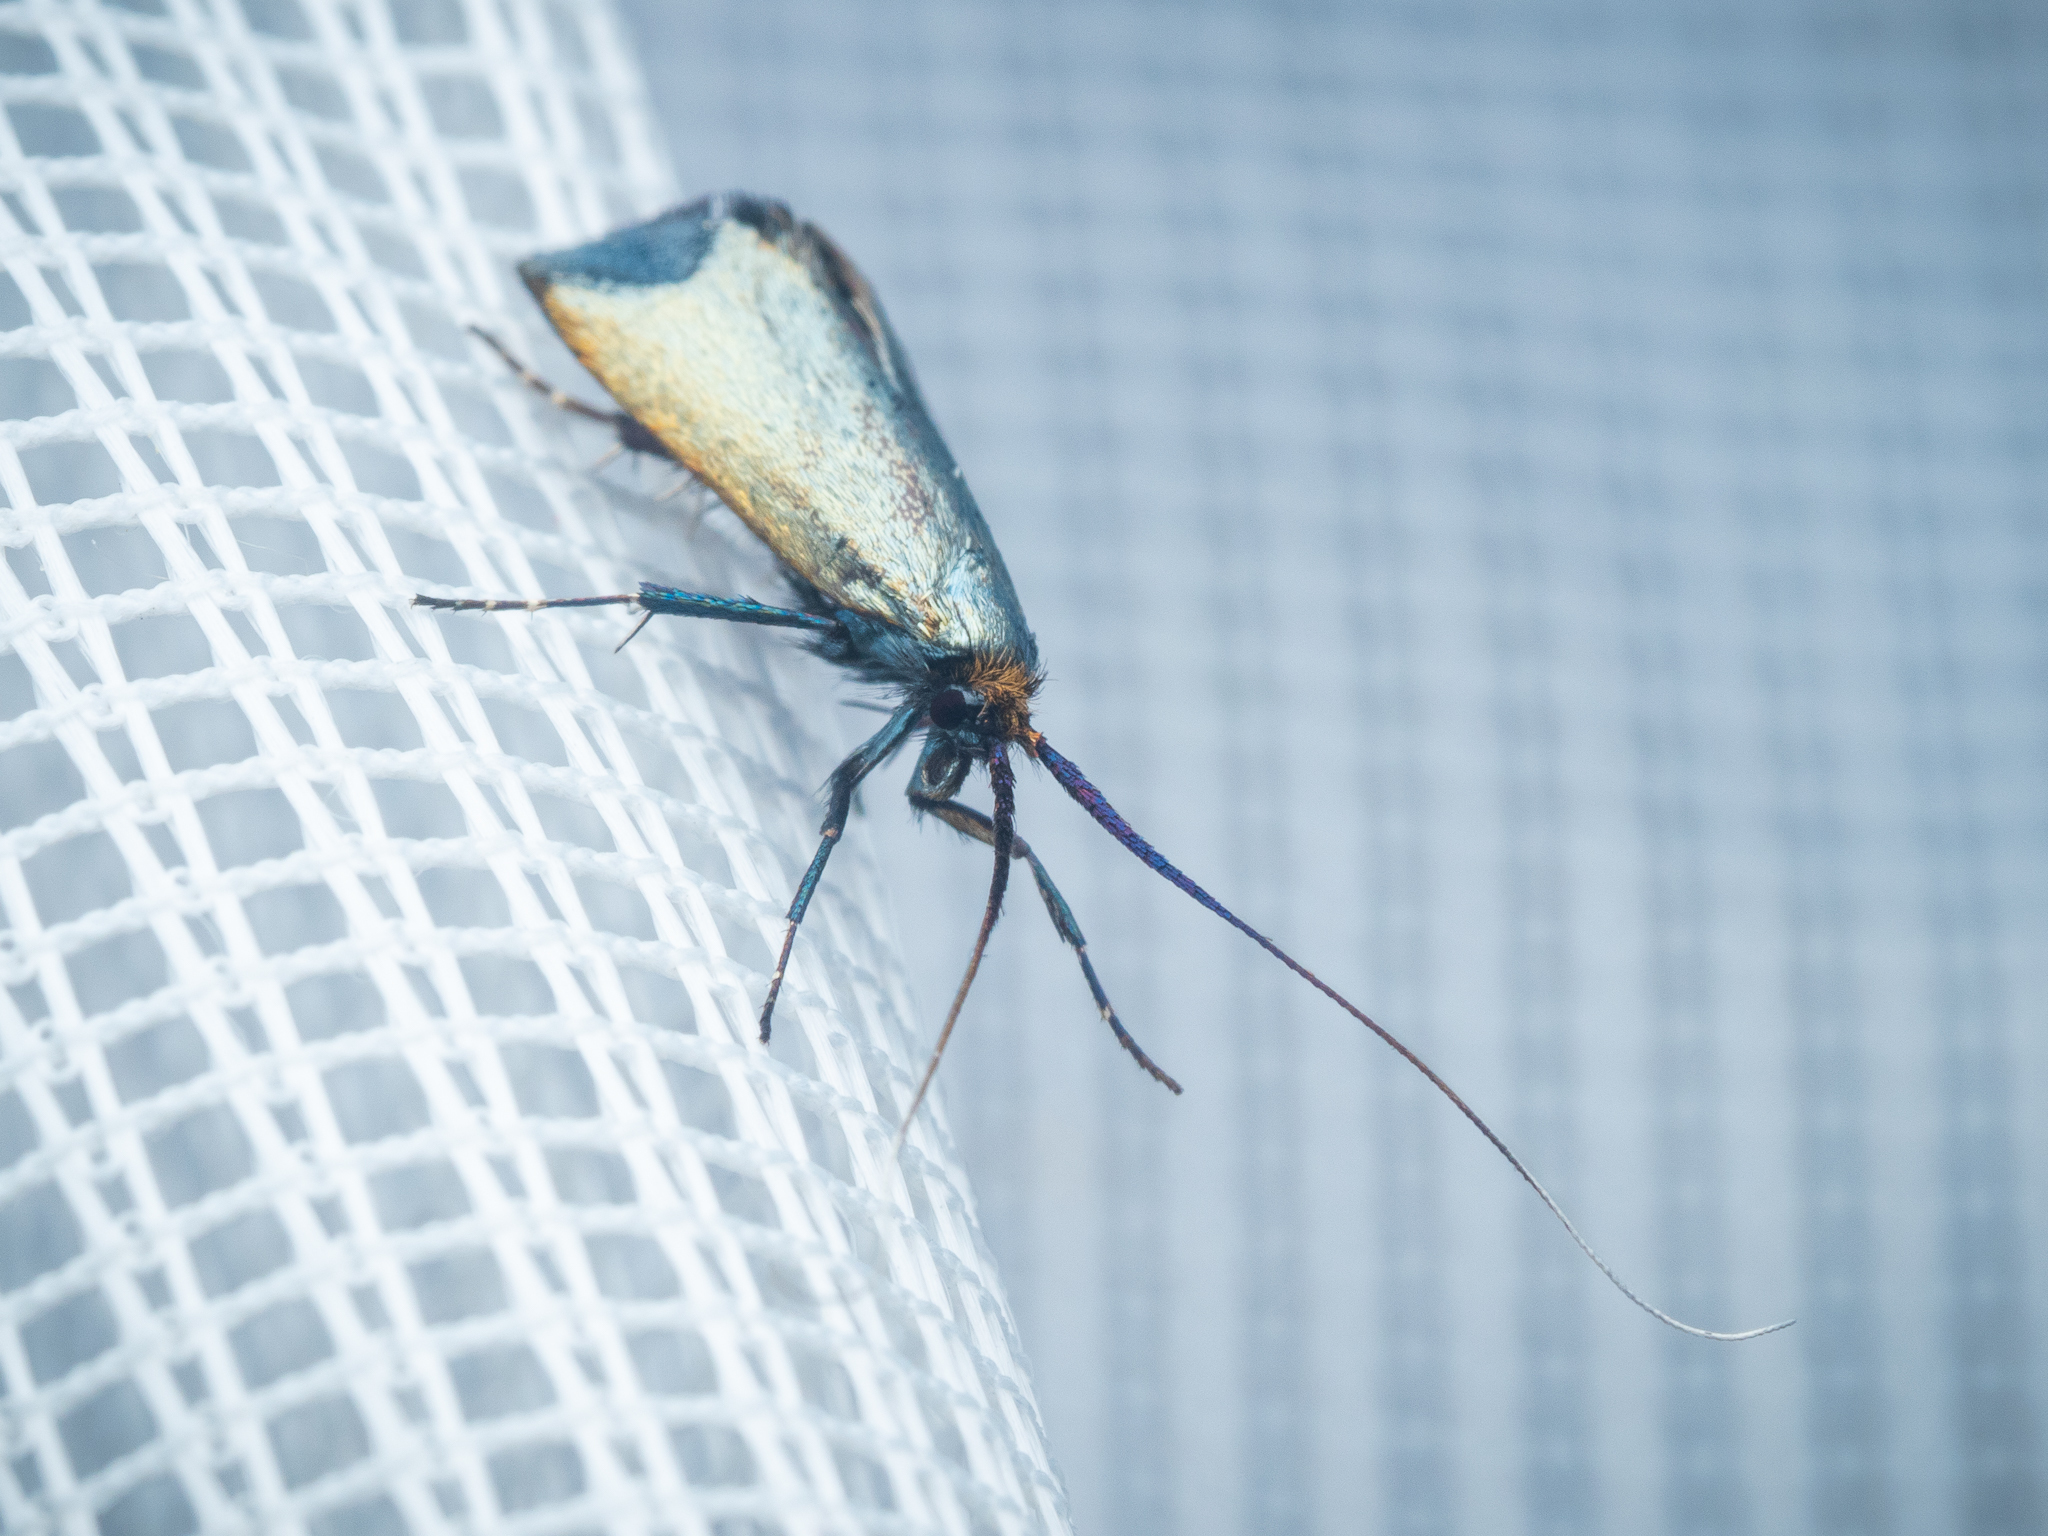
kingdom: Animalia
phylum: Arthropoda
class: Insecta
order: Lepidoptera
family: Adelidae
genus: Adela
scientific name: Adela viridella
